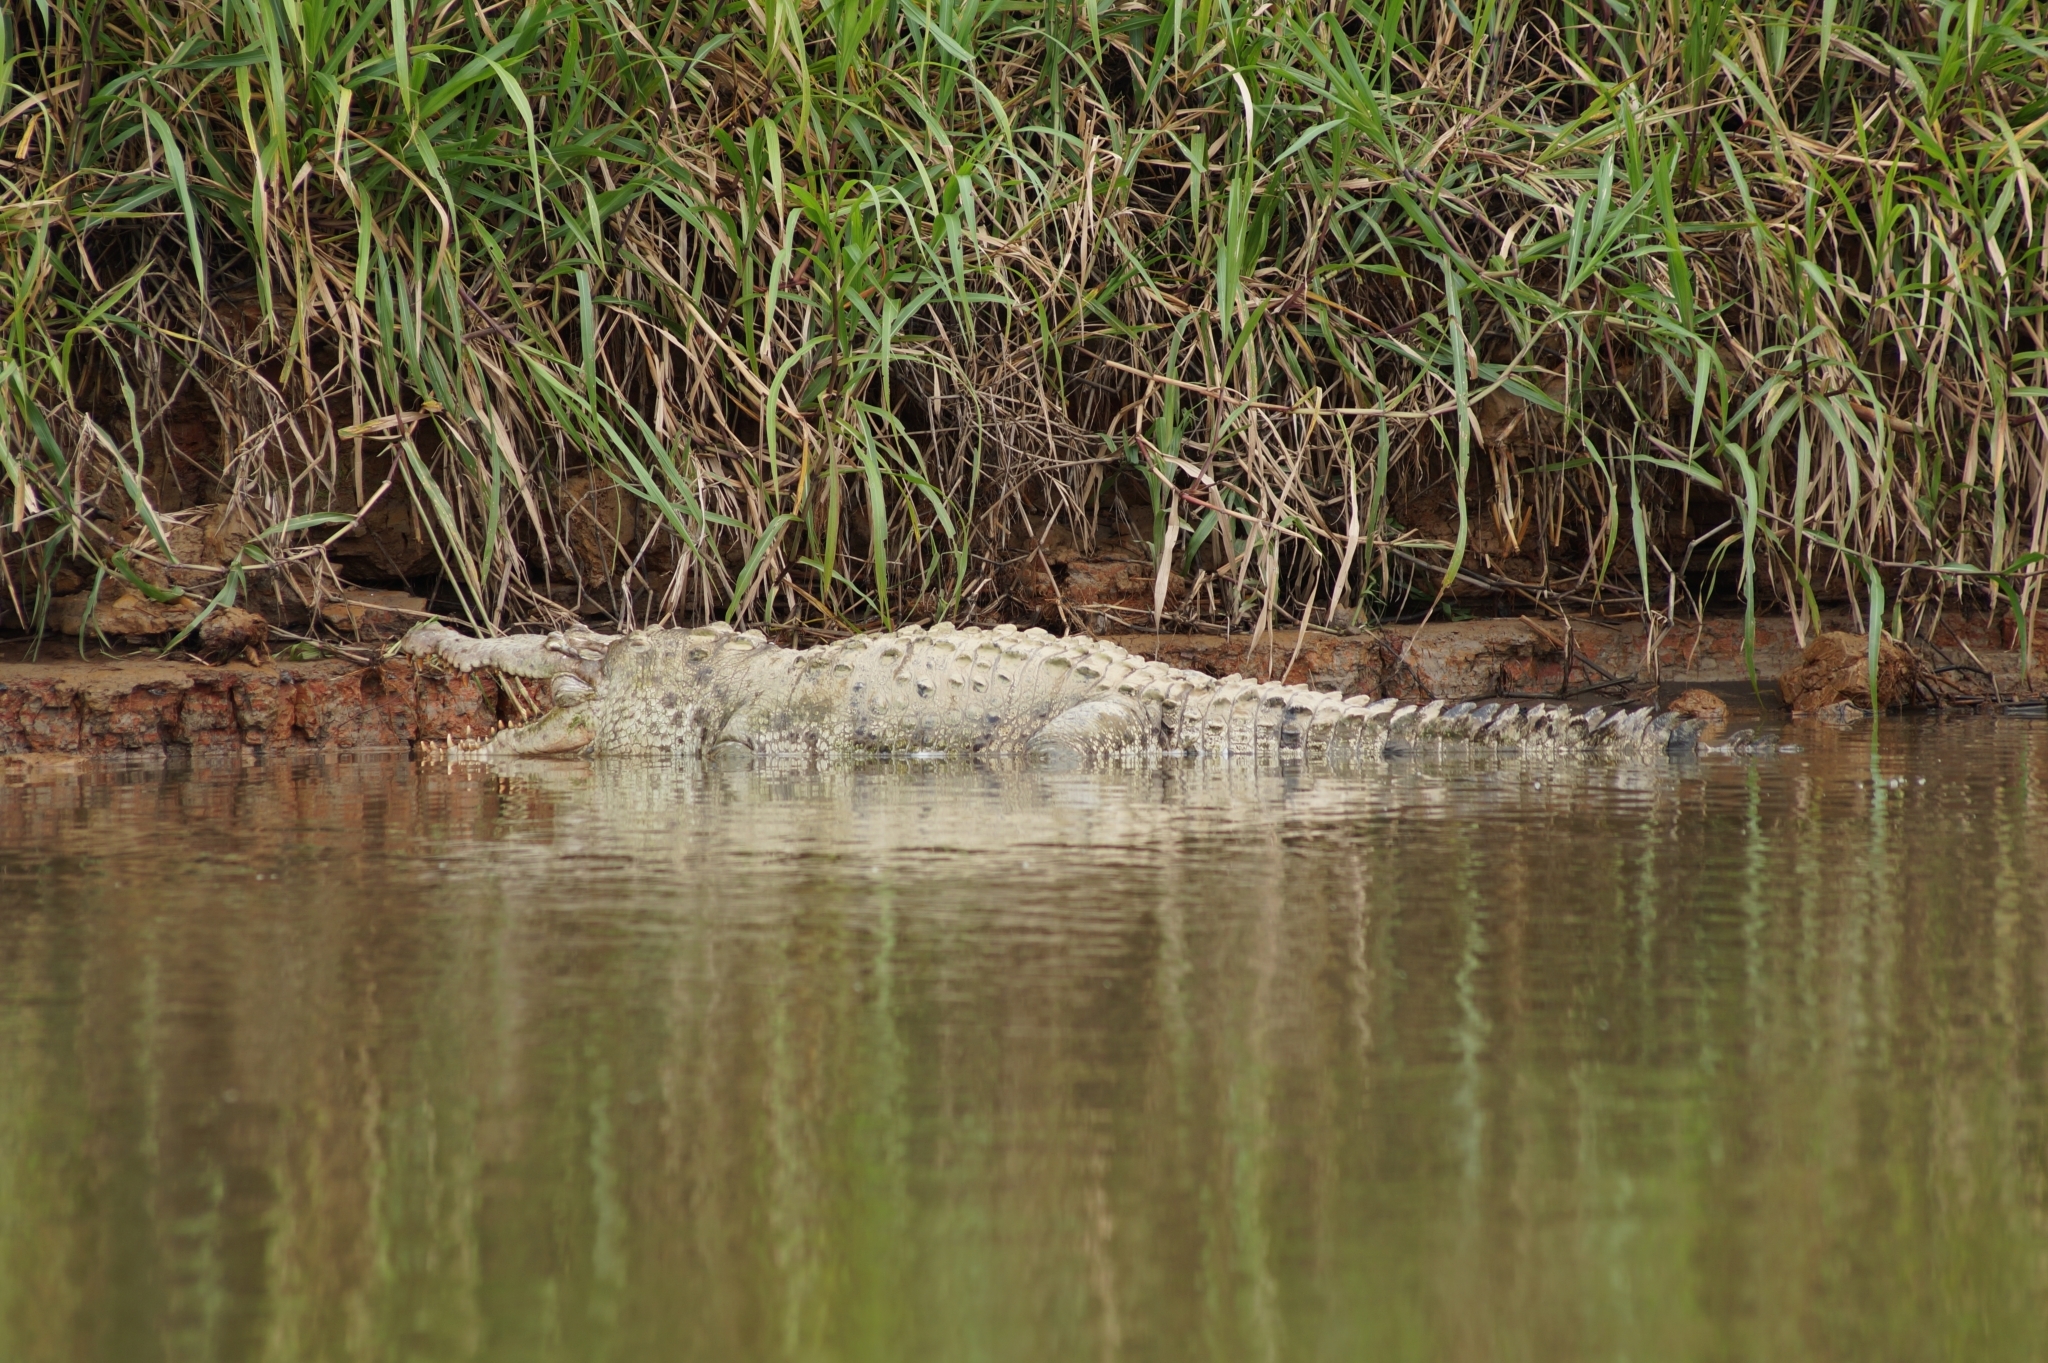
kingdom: Animalia
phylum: Chordata
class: Crocodylia
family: Crocodylidae
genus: Crocodylus
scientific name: Crocodylus acutus
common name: American crocodile
